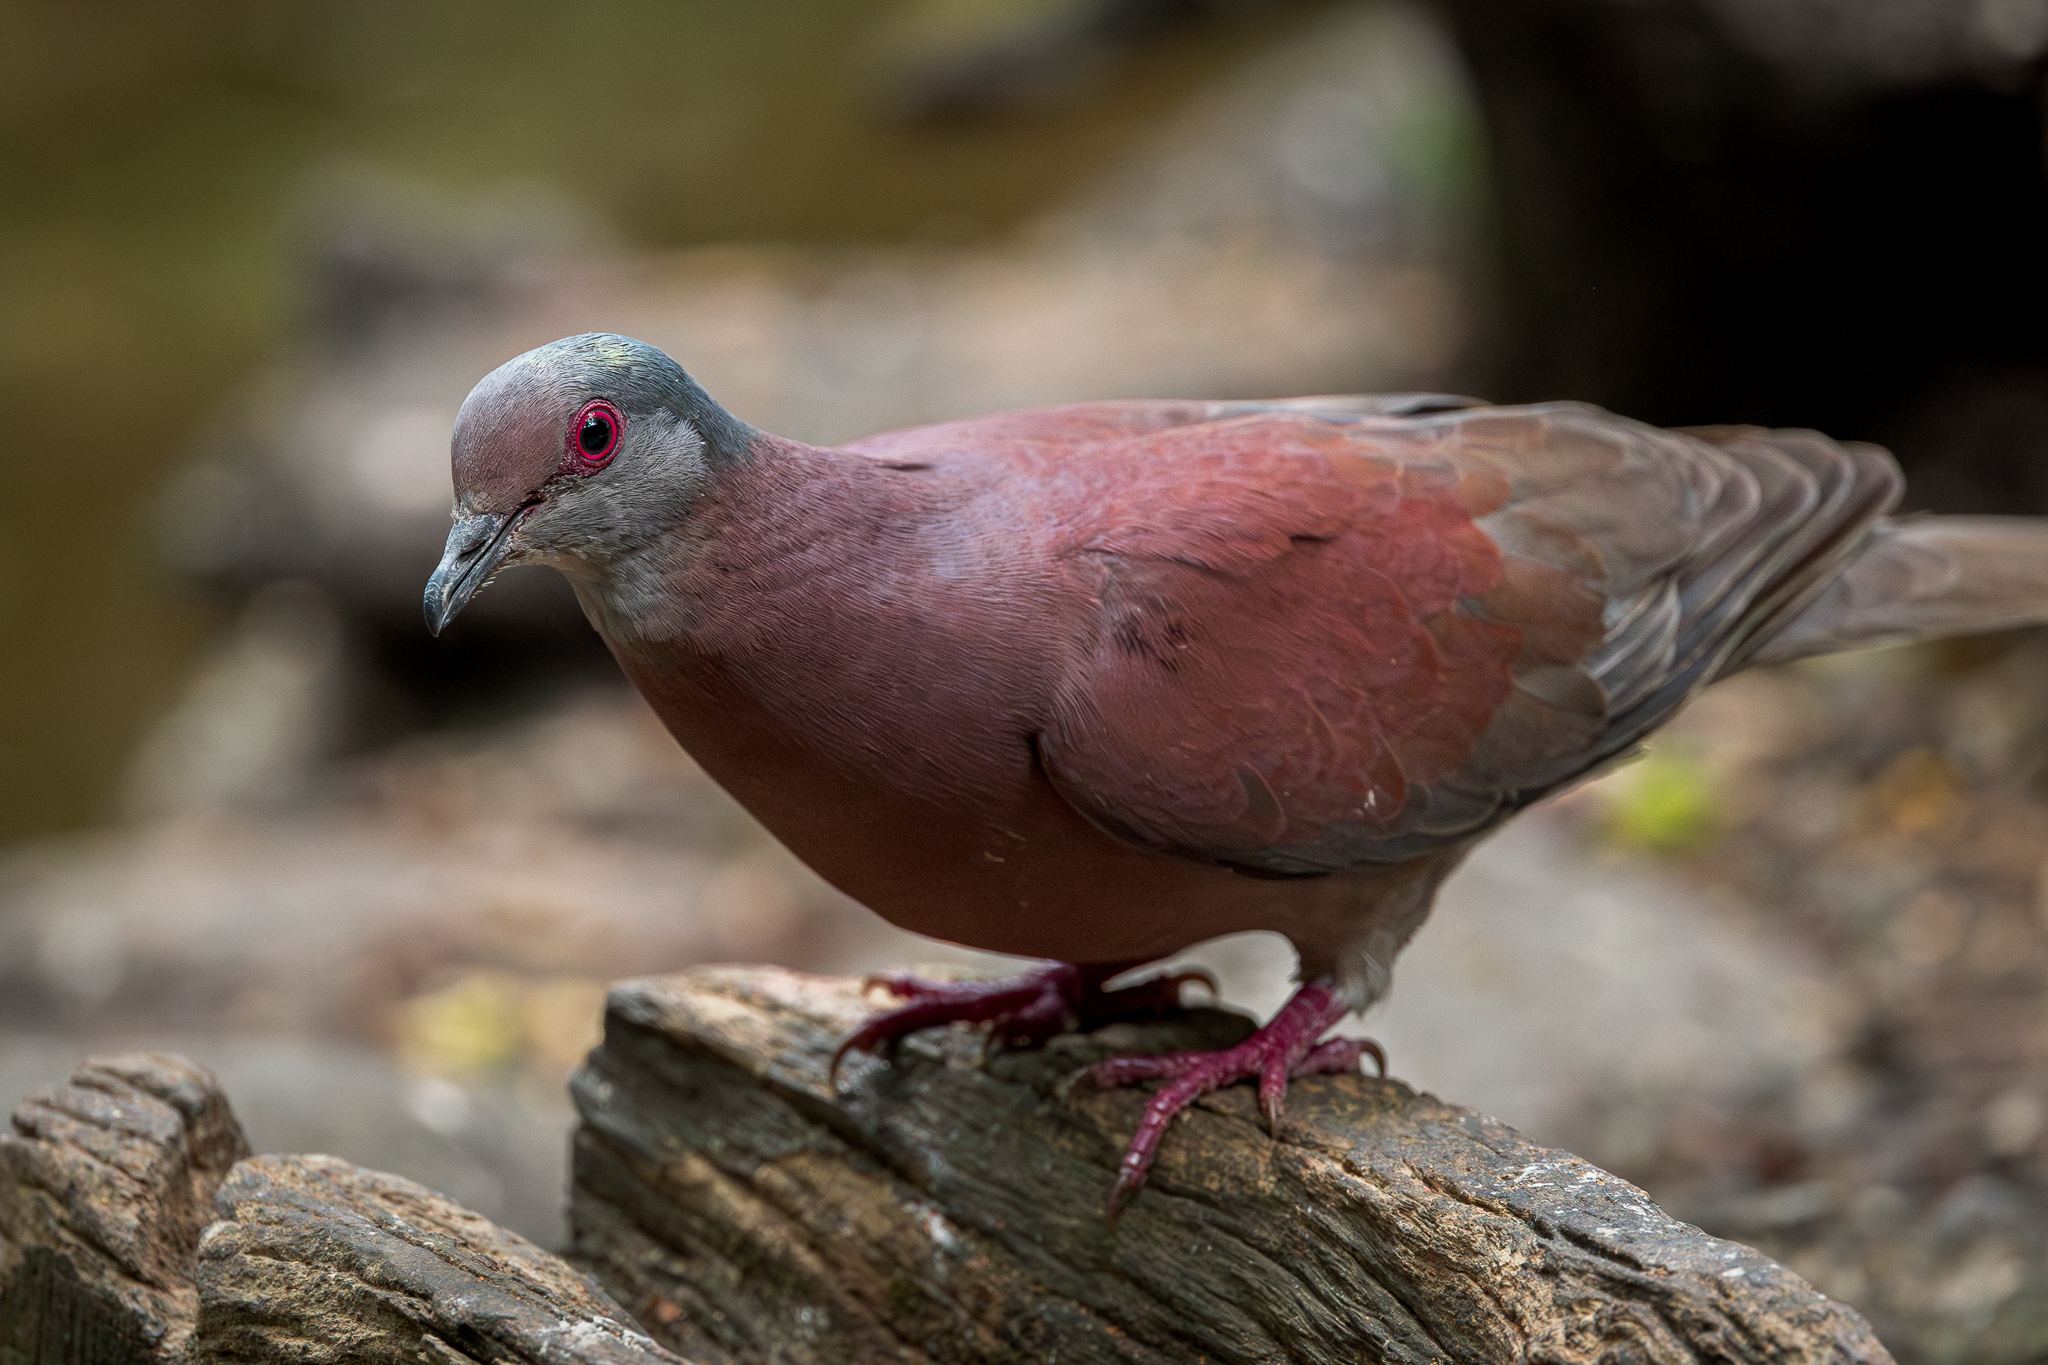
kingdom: Animalia
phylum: Chordata
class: Aves
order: Columbiformes
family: Columbidae
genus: Patagioenas
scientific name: Patagioenas cayennensis
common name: Pale-vented pigeon
